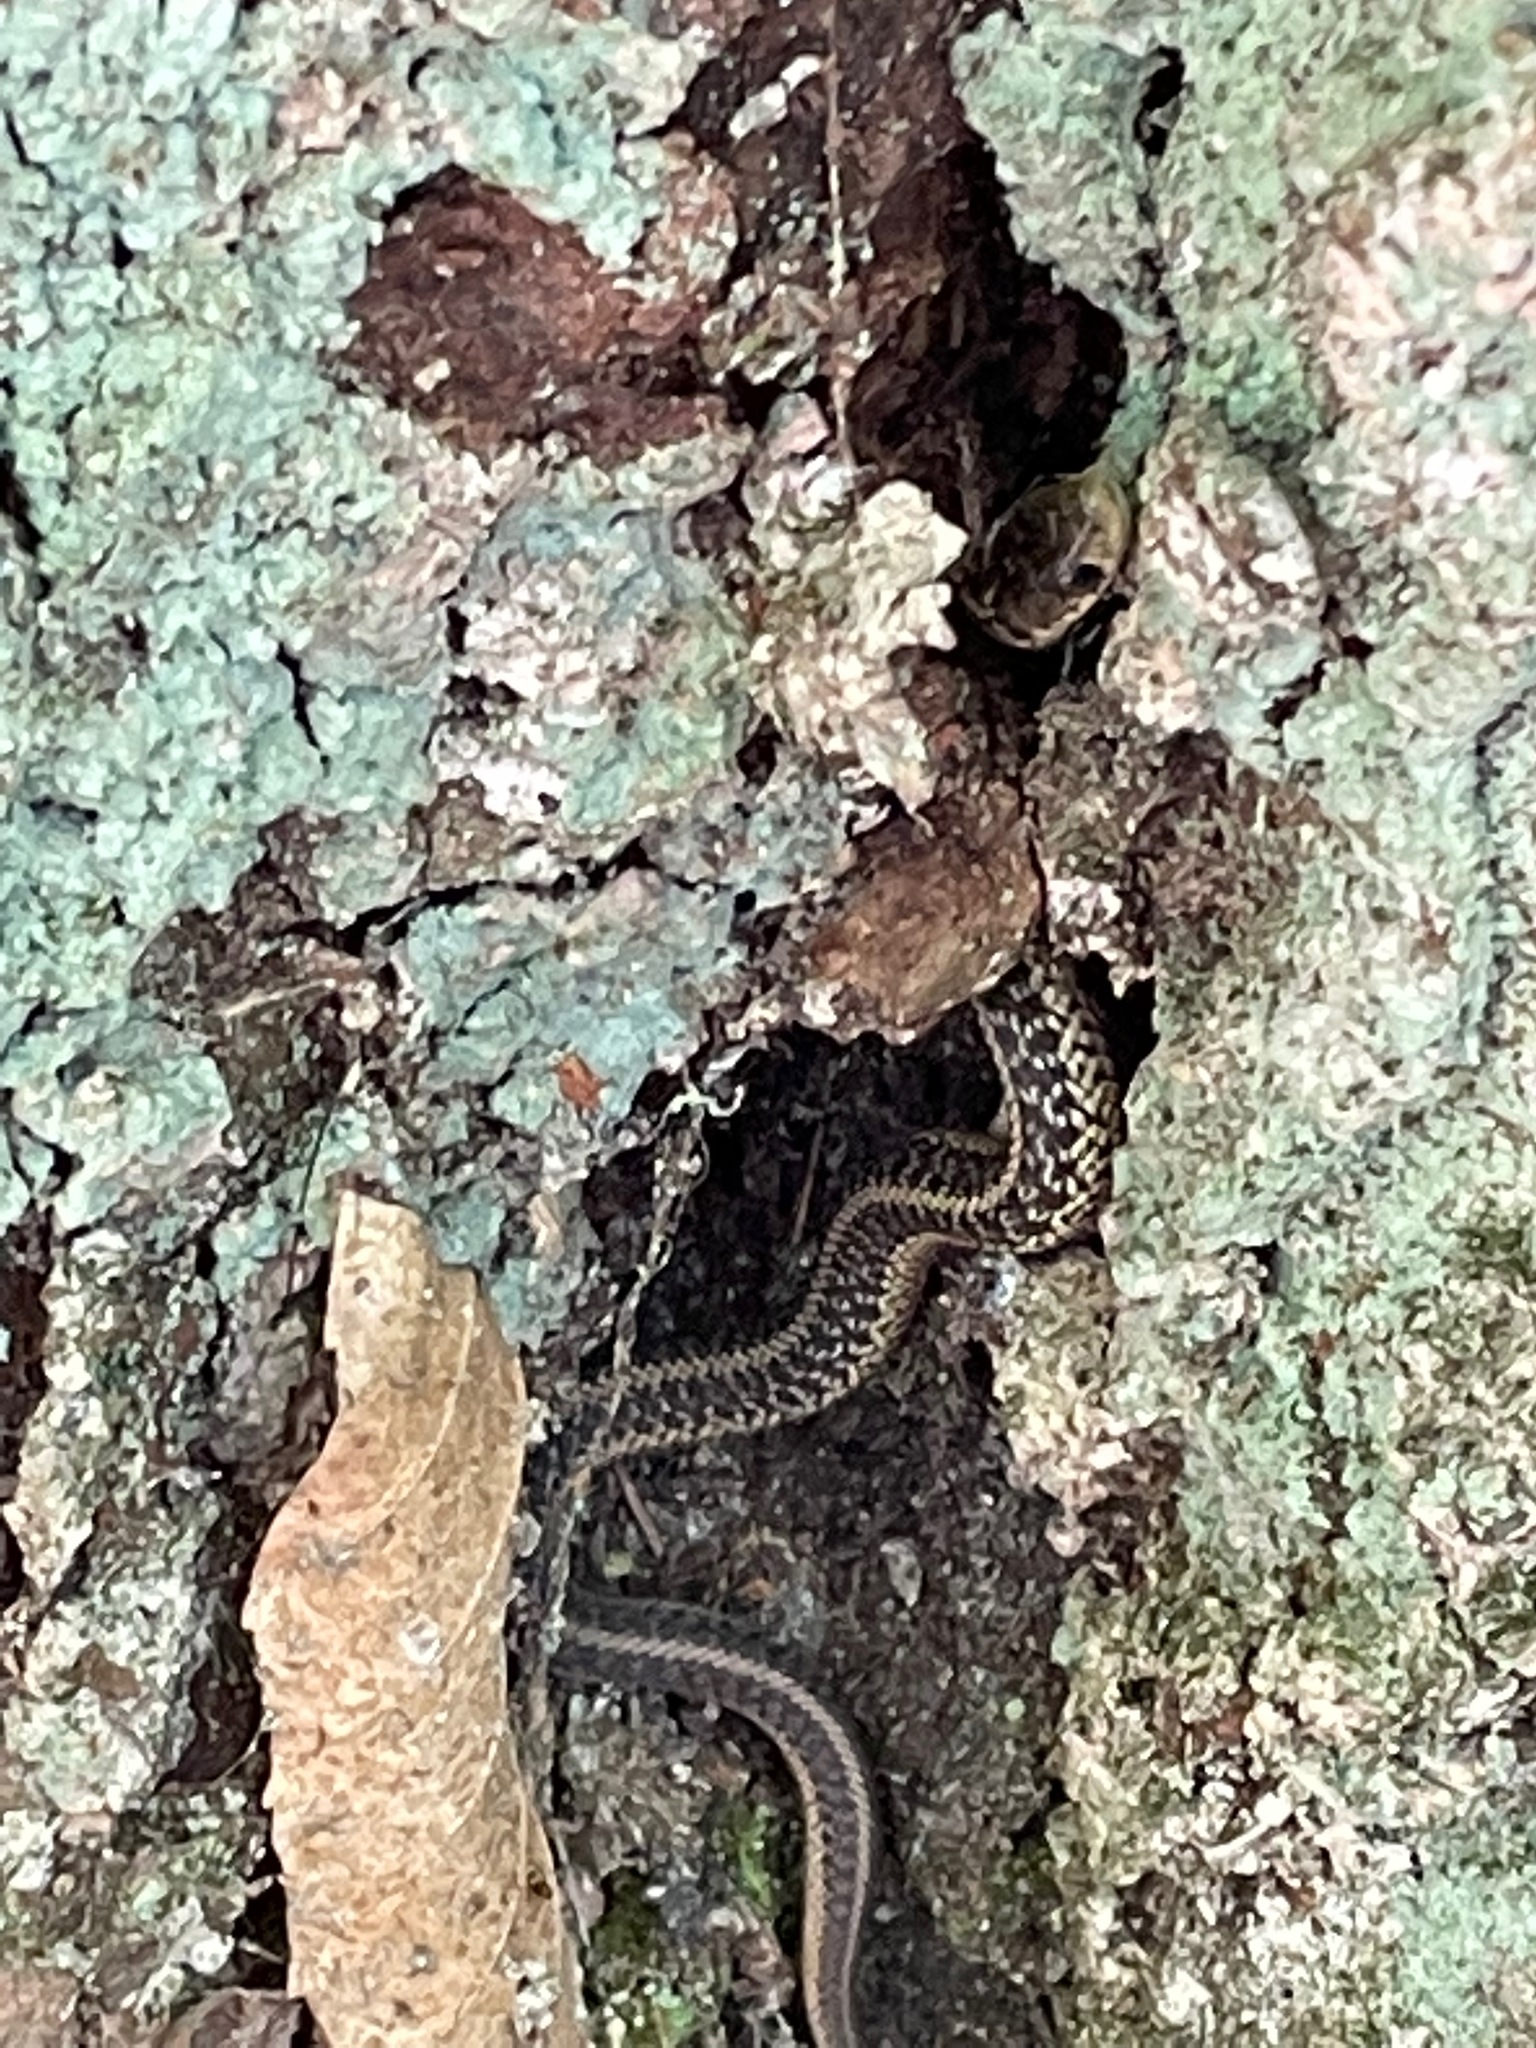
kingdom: Animalia
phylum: Chordata
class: Squamata
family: Colubridae
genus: Thamnophis
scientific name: Thamnophis sirtalis
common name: Common garter snake
